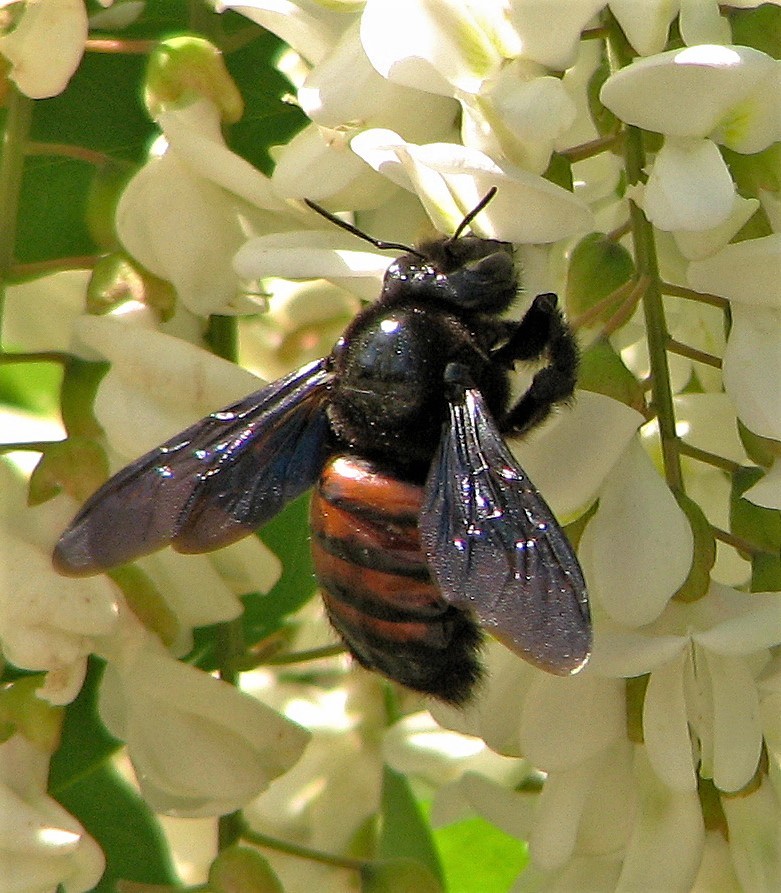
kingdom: Animalia
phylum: Arthropoda
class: Insecta
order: Hymenoptera
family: Apidae
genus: Xylocopa
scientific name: Xylocopa frontalis
